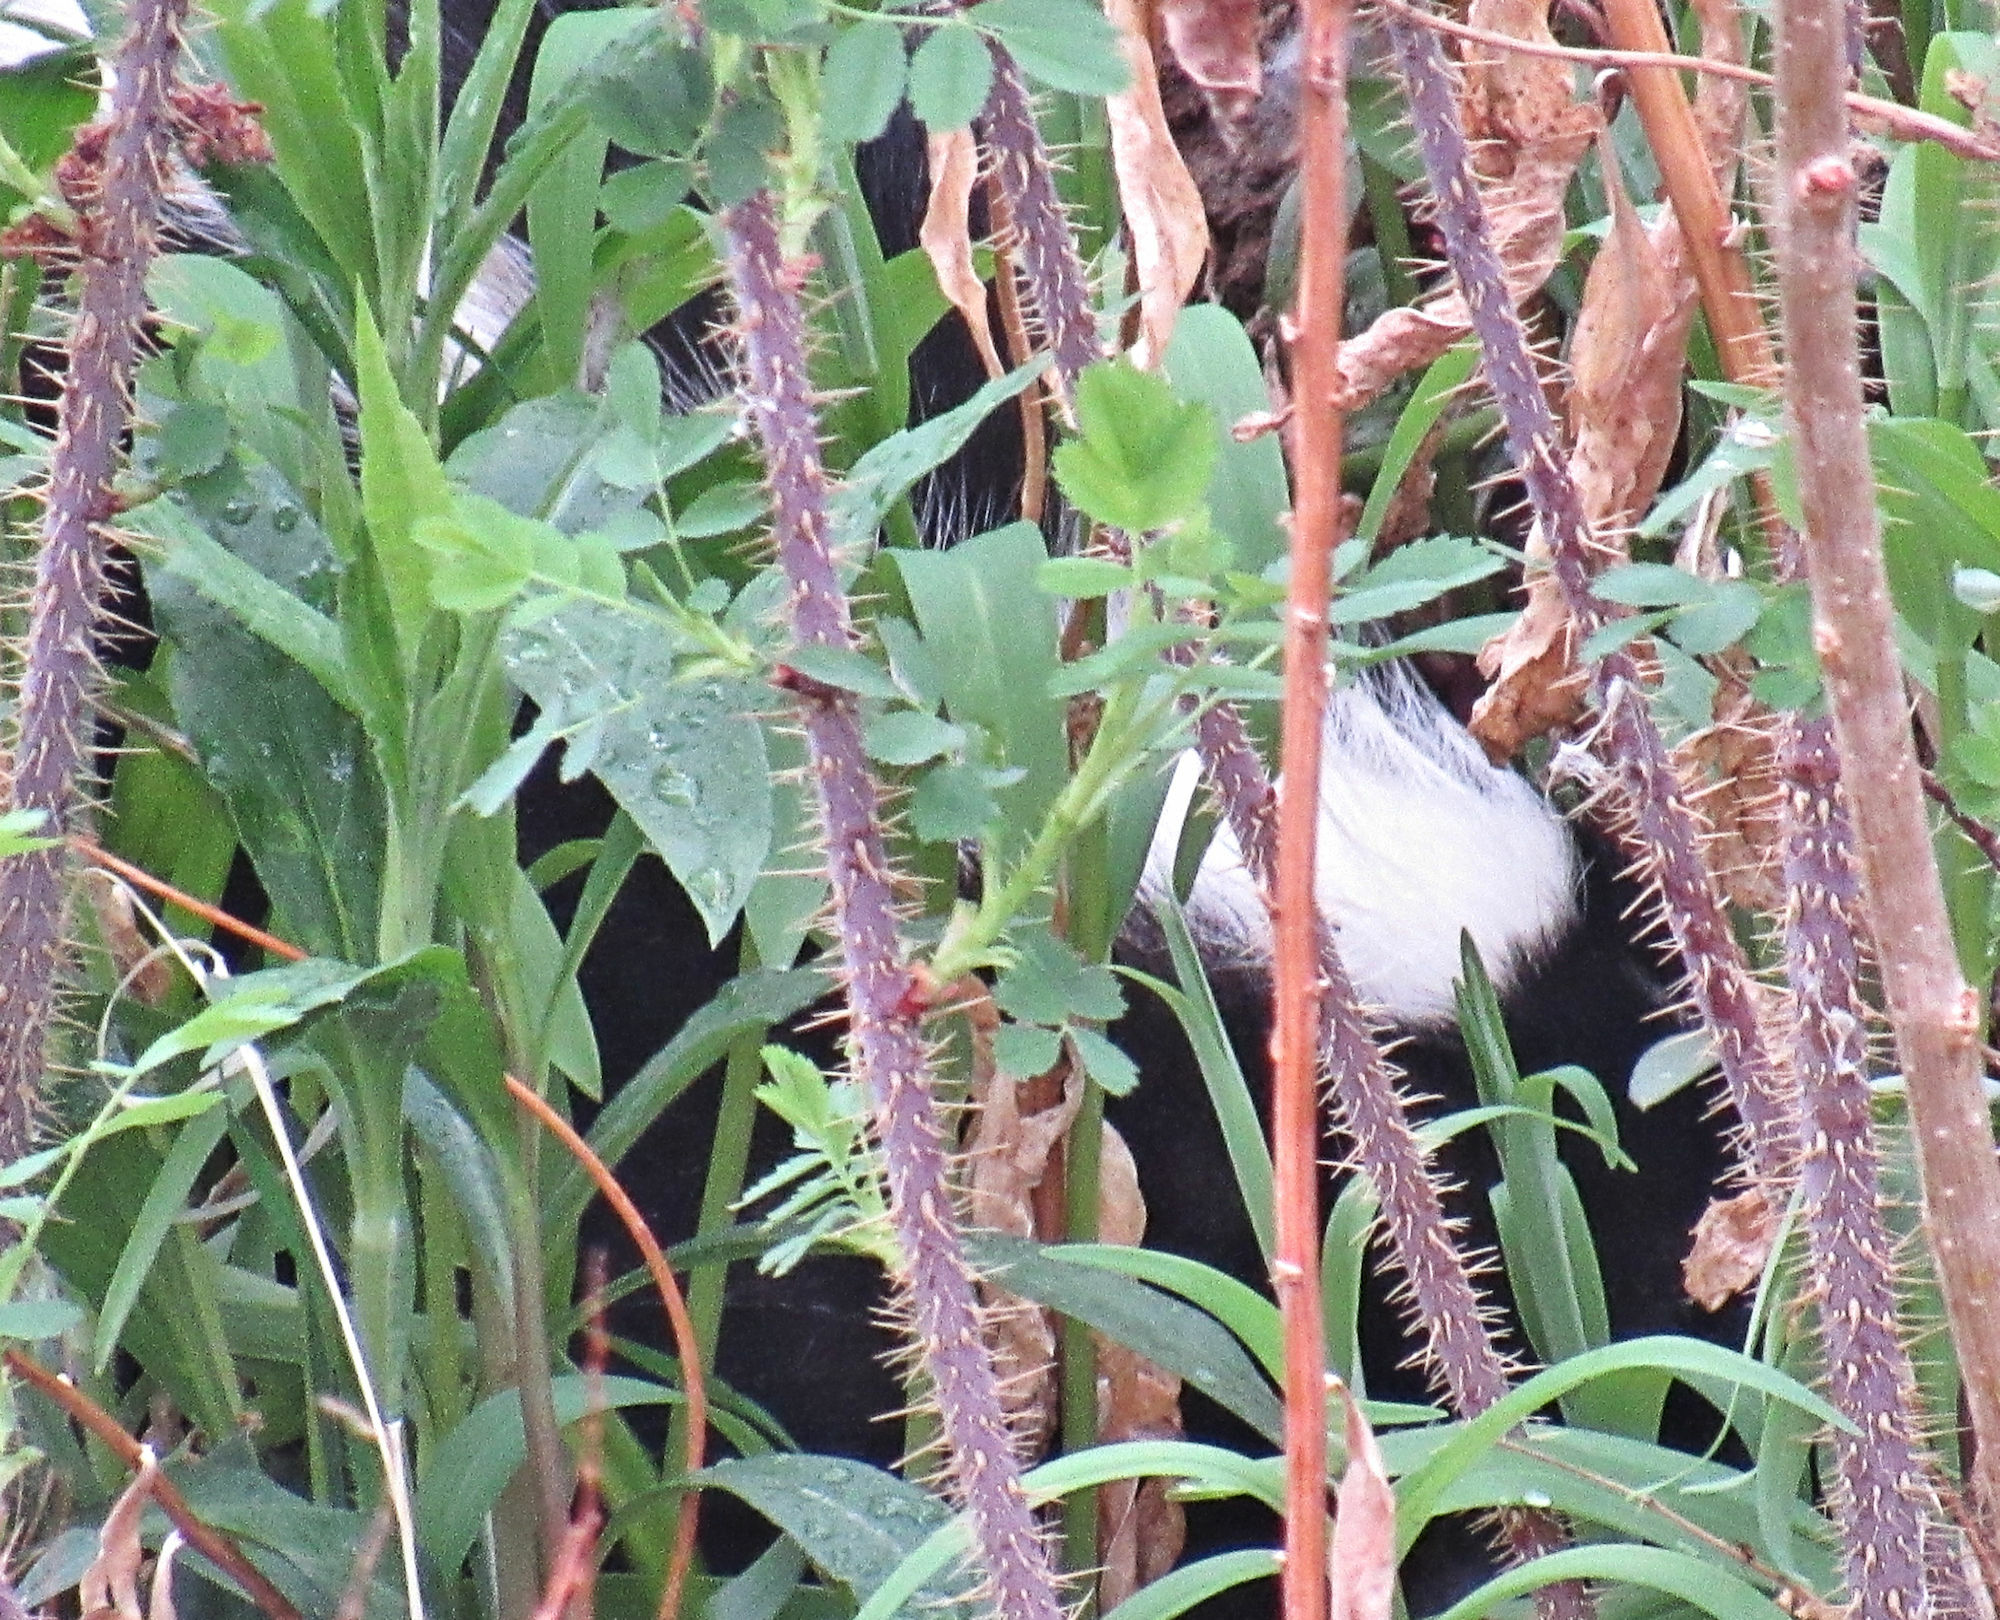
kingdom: Animalia
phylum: Chordata
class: Mammalia
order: Carnivora
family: Mephitidae
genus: Mephitis
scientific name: Mephitis mephitis
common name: Striped skunk
